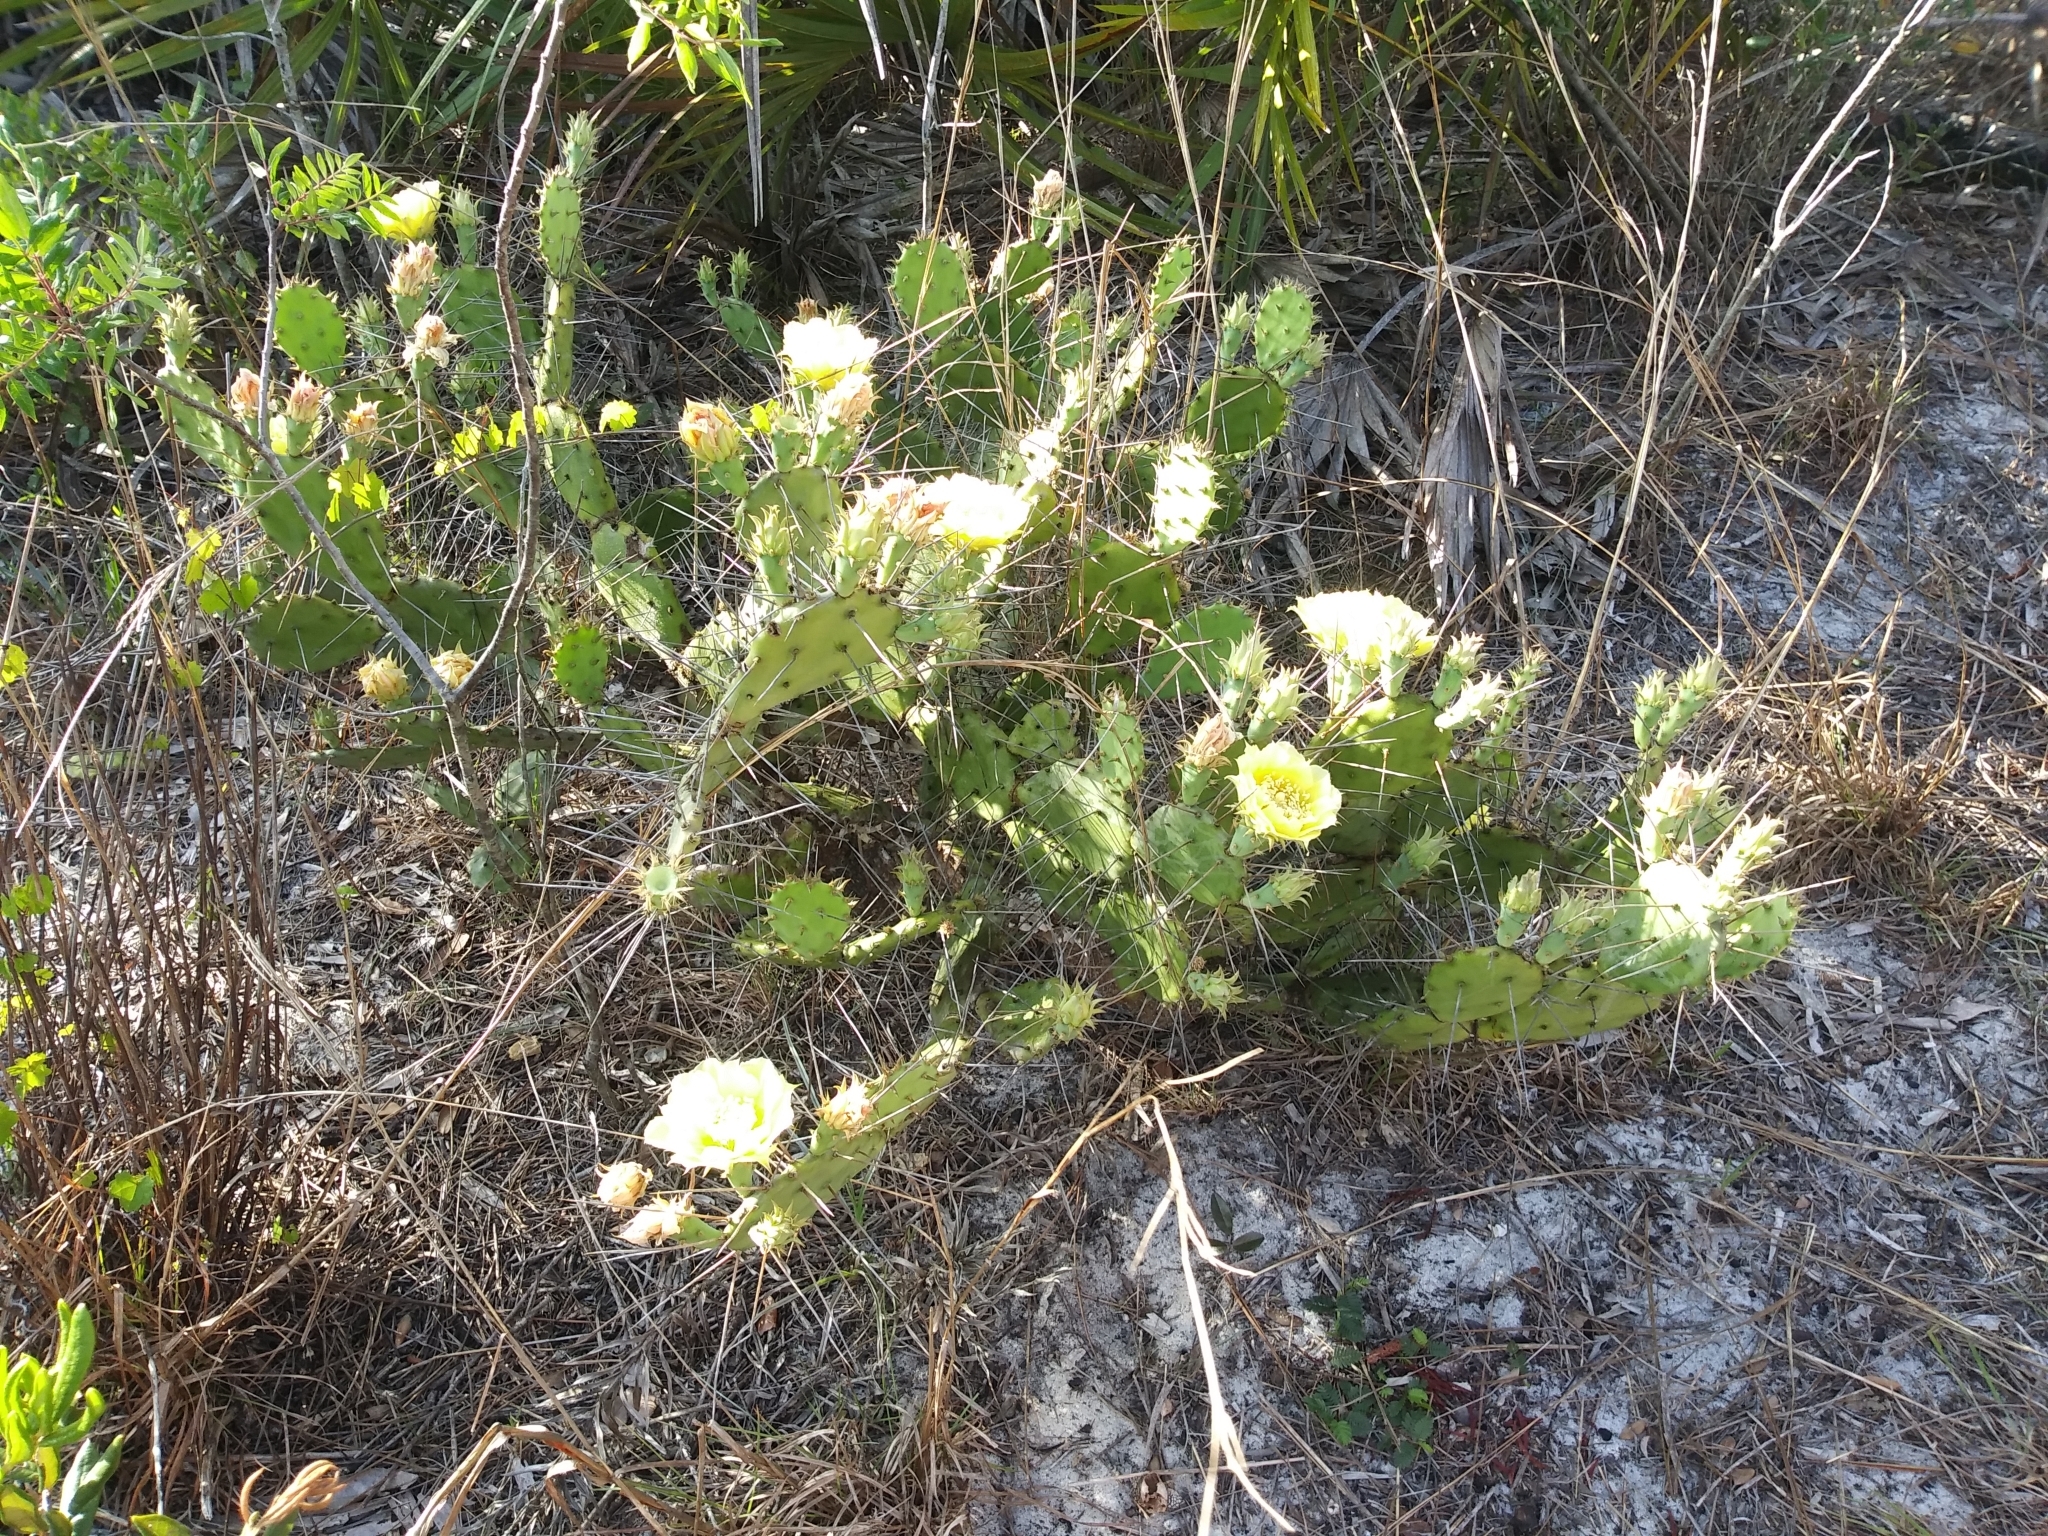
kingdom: Plantae
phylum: Tracheophyta
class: Magnoliopsida
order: Caryophyllales
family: Cactaceae
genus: Opuntia
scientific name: Opuntia austrina
